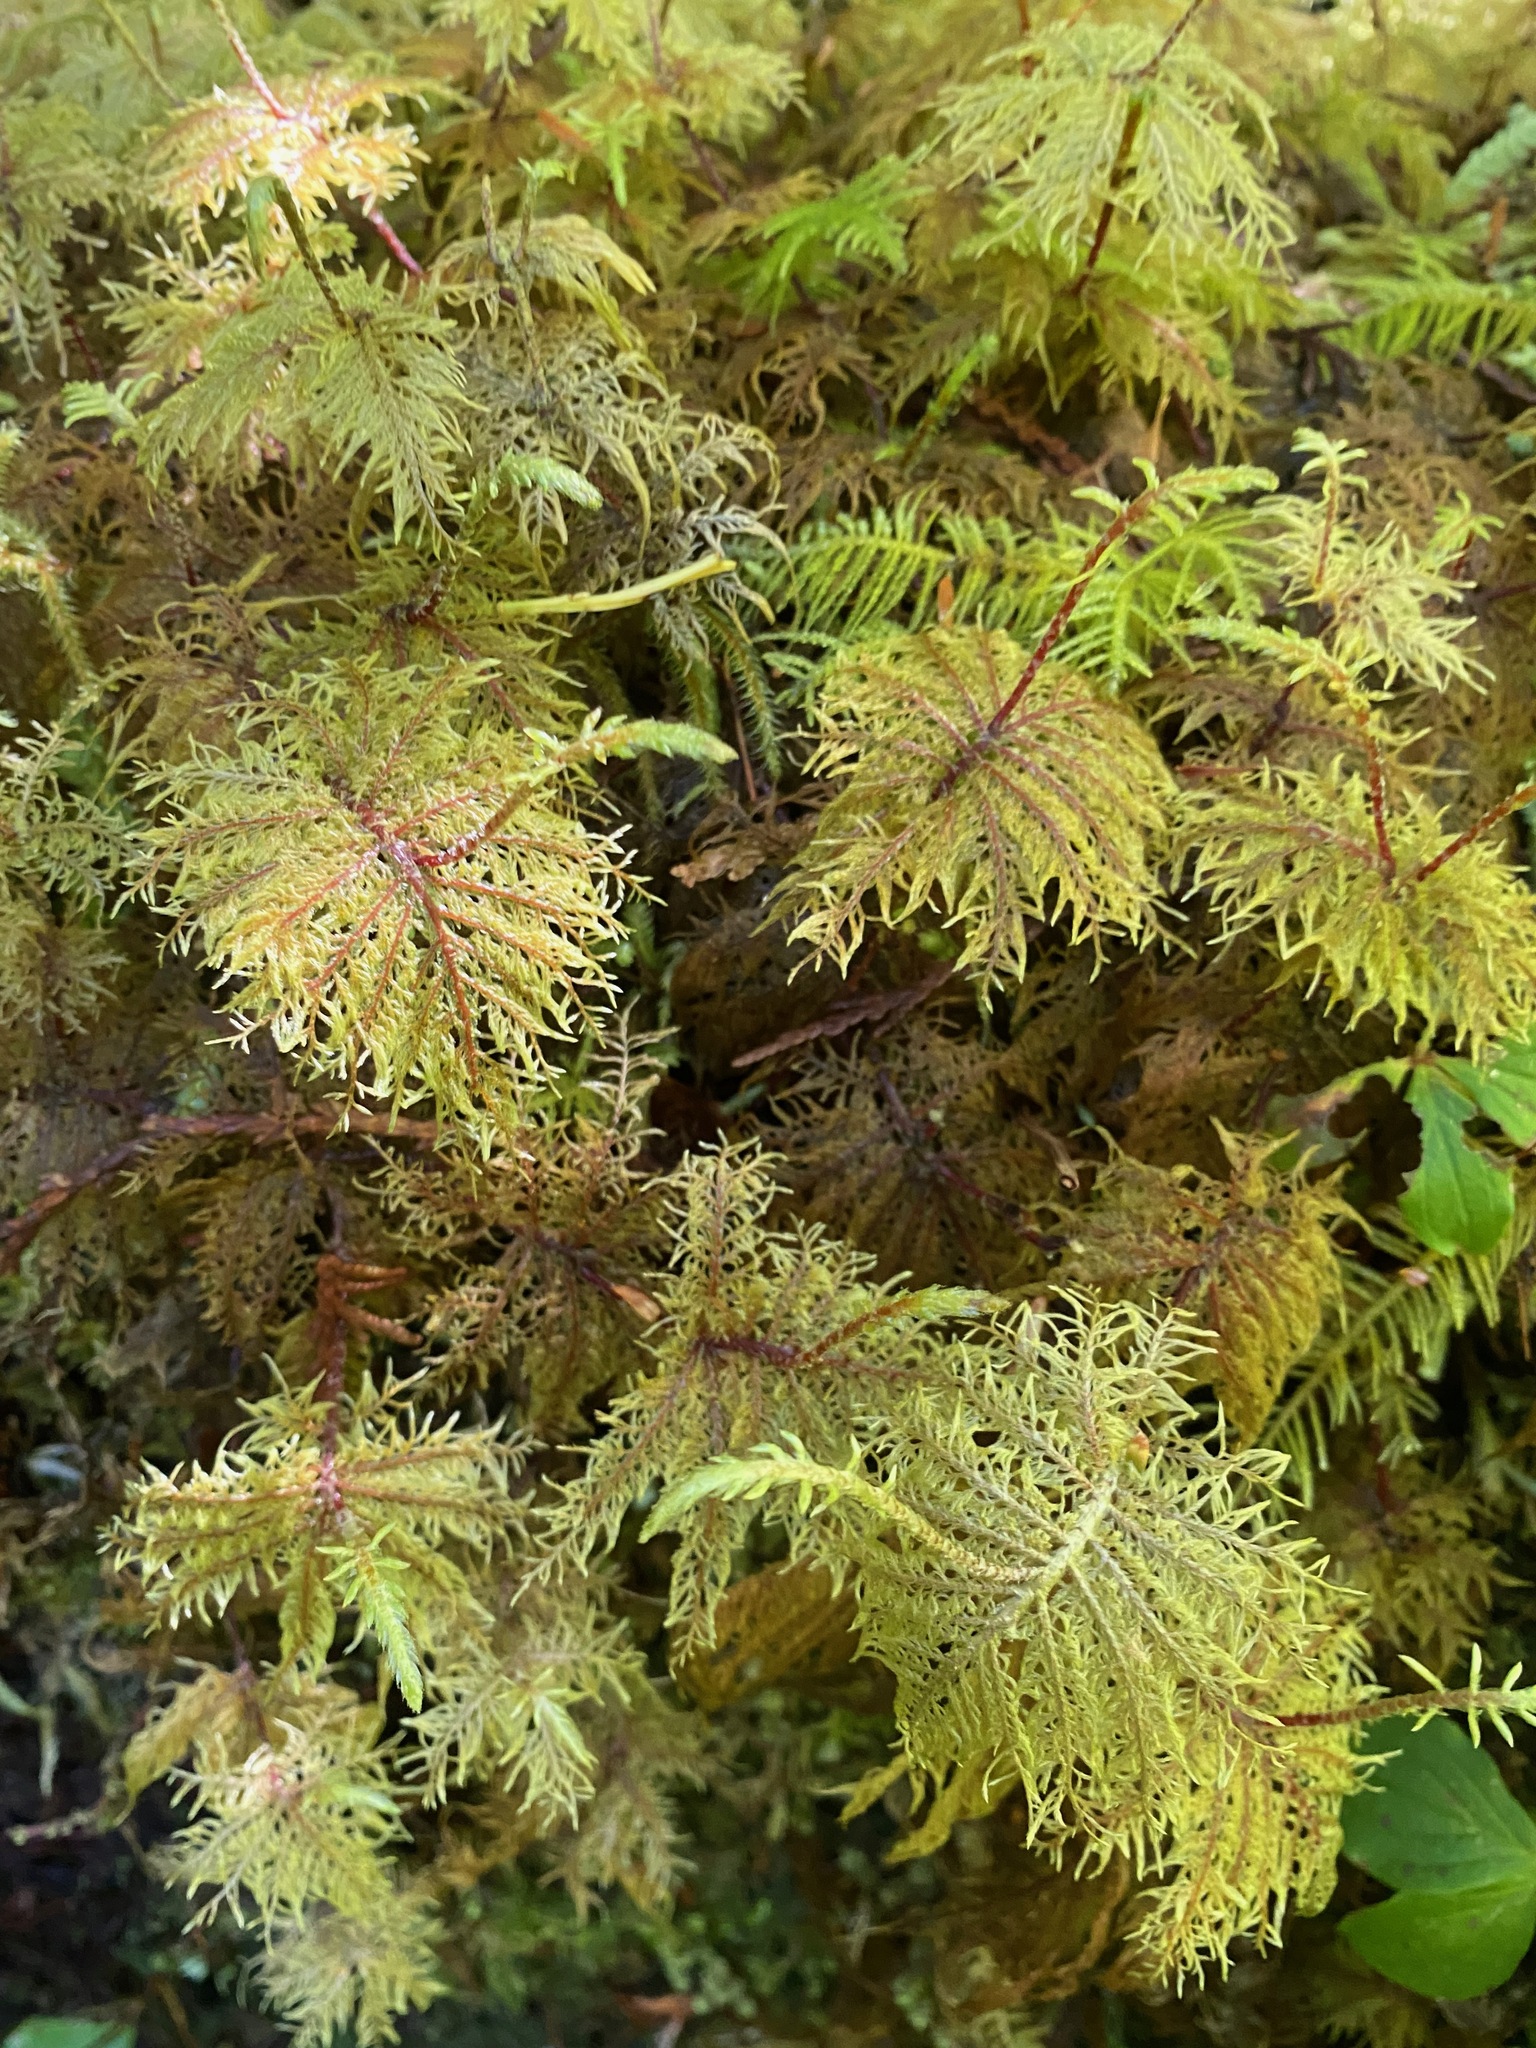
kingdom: Plantae
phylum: Bryophyta
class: Bryopsida
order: Hypnales
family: Hylocomiaceae
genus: Hylocomium
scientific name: Hylocomium splendens
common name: Stairstep moss
